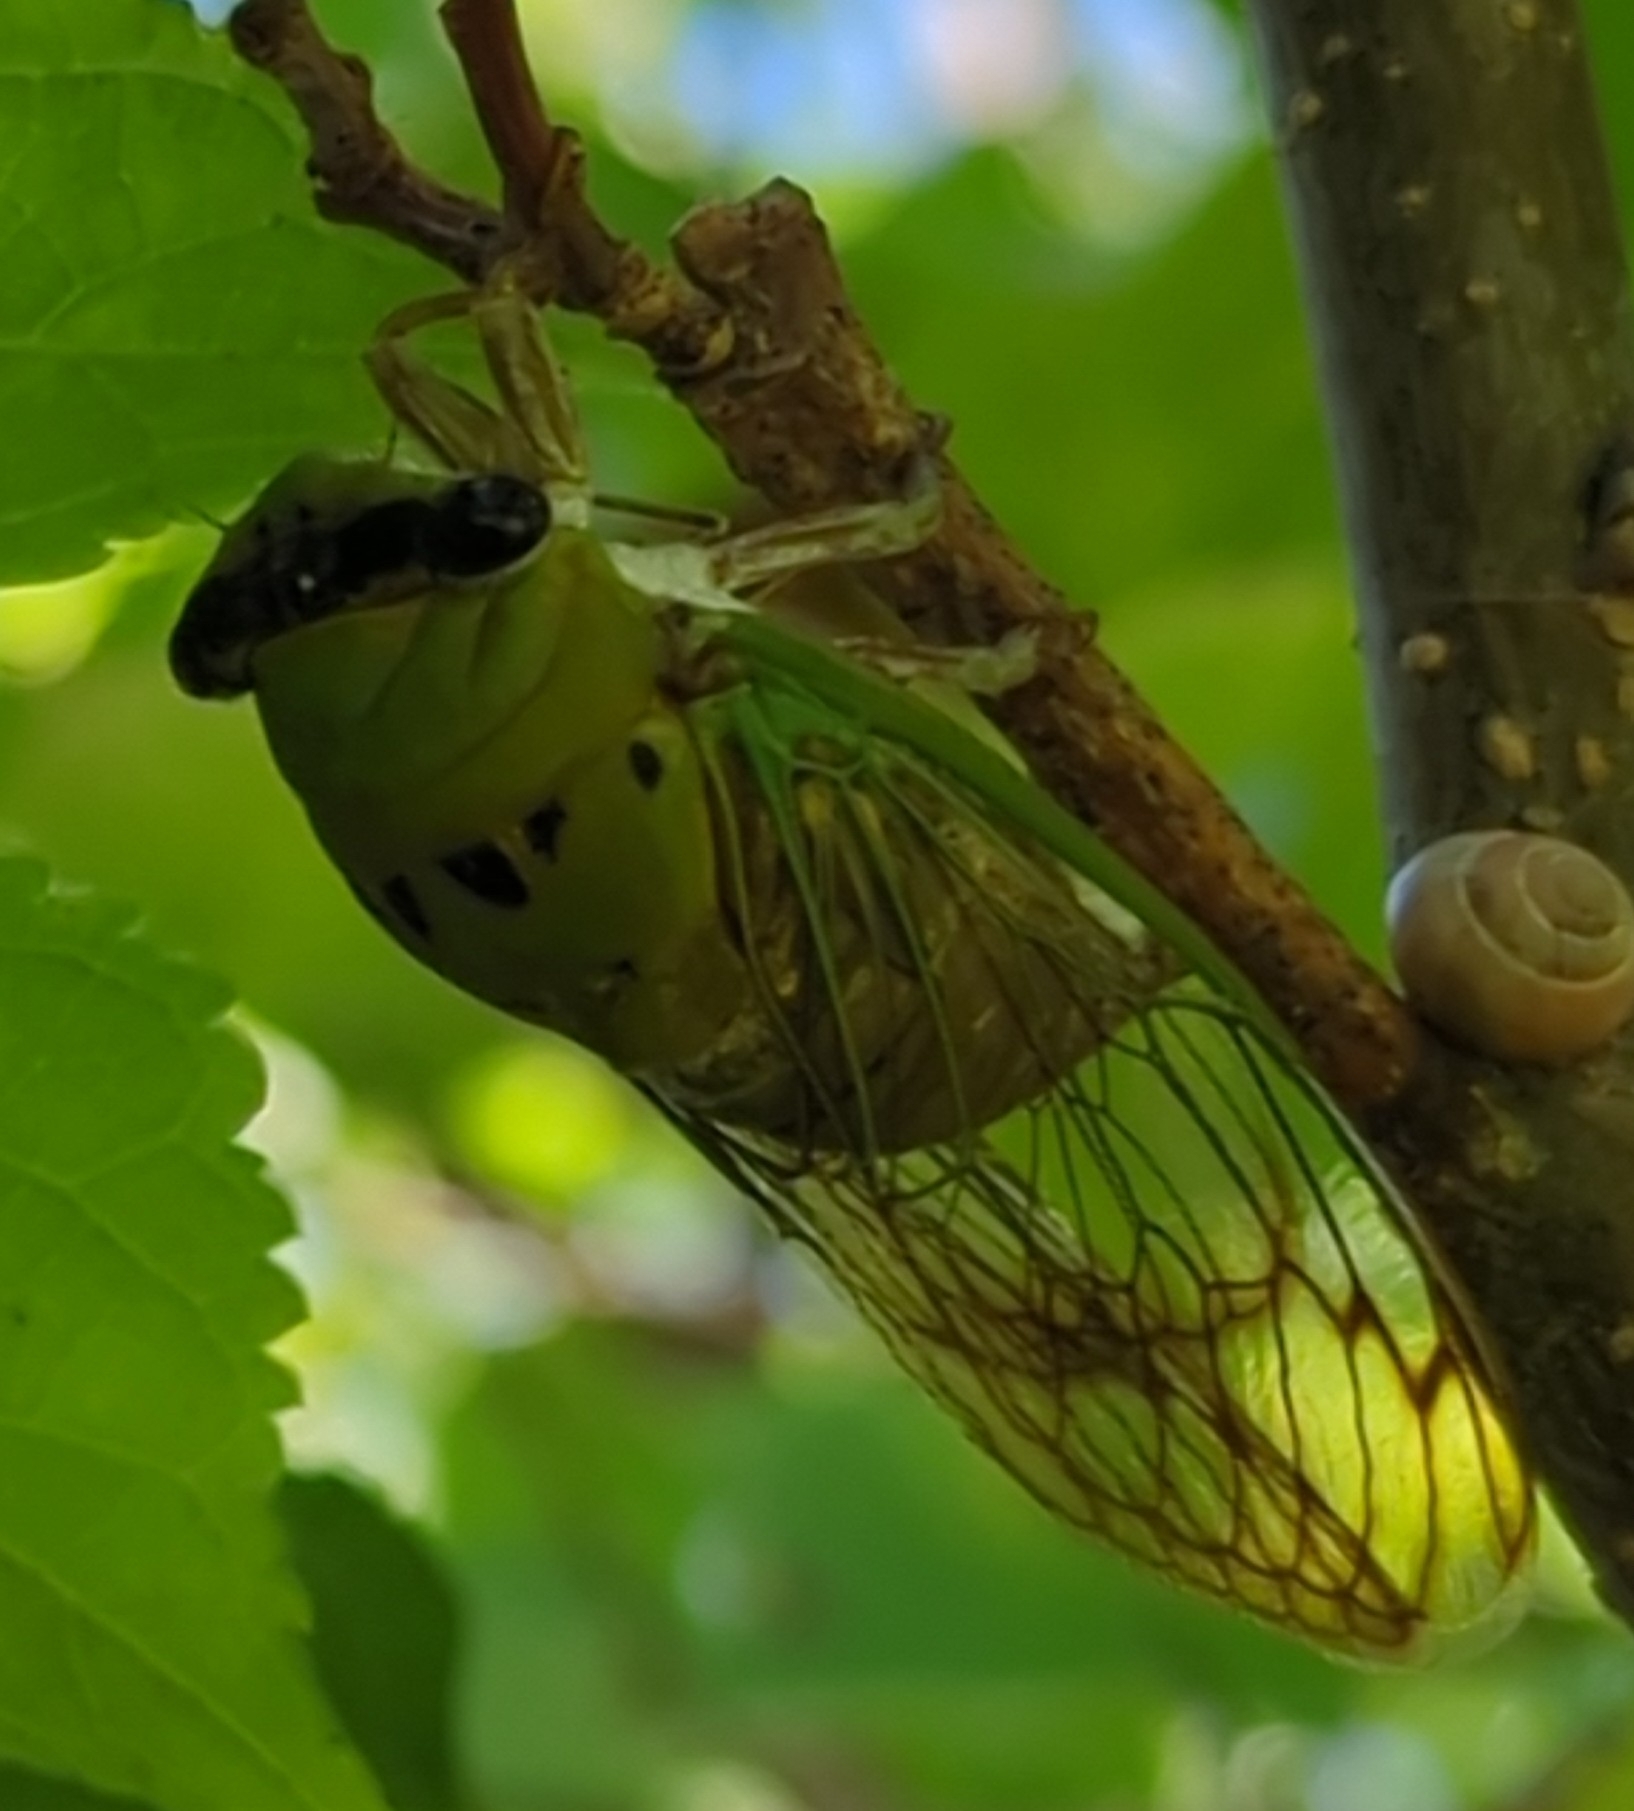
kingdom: Animalia
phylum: Arthropoda
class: Insecta
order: Hemiptera
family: Cicadidae
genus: Neotibicen
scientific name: Neotibicen superbus
